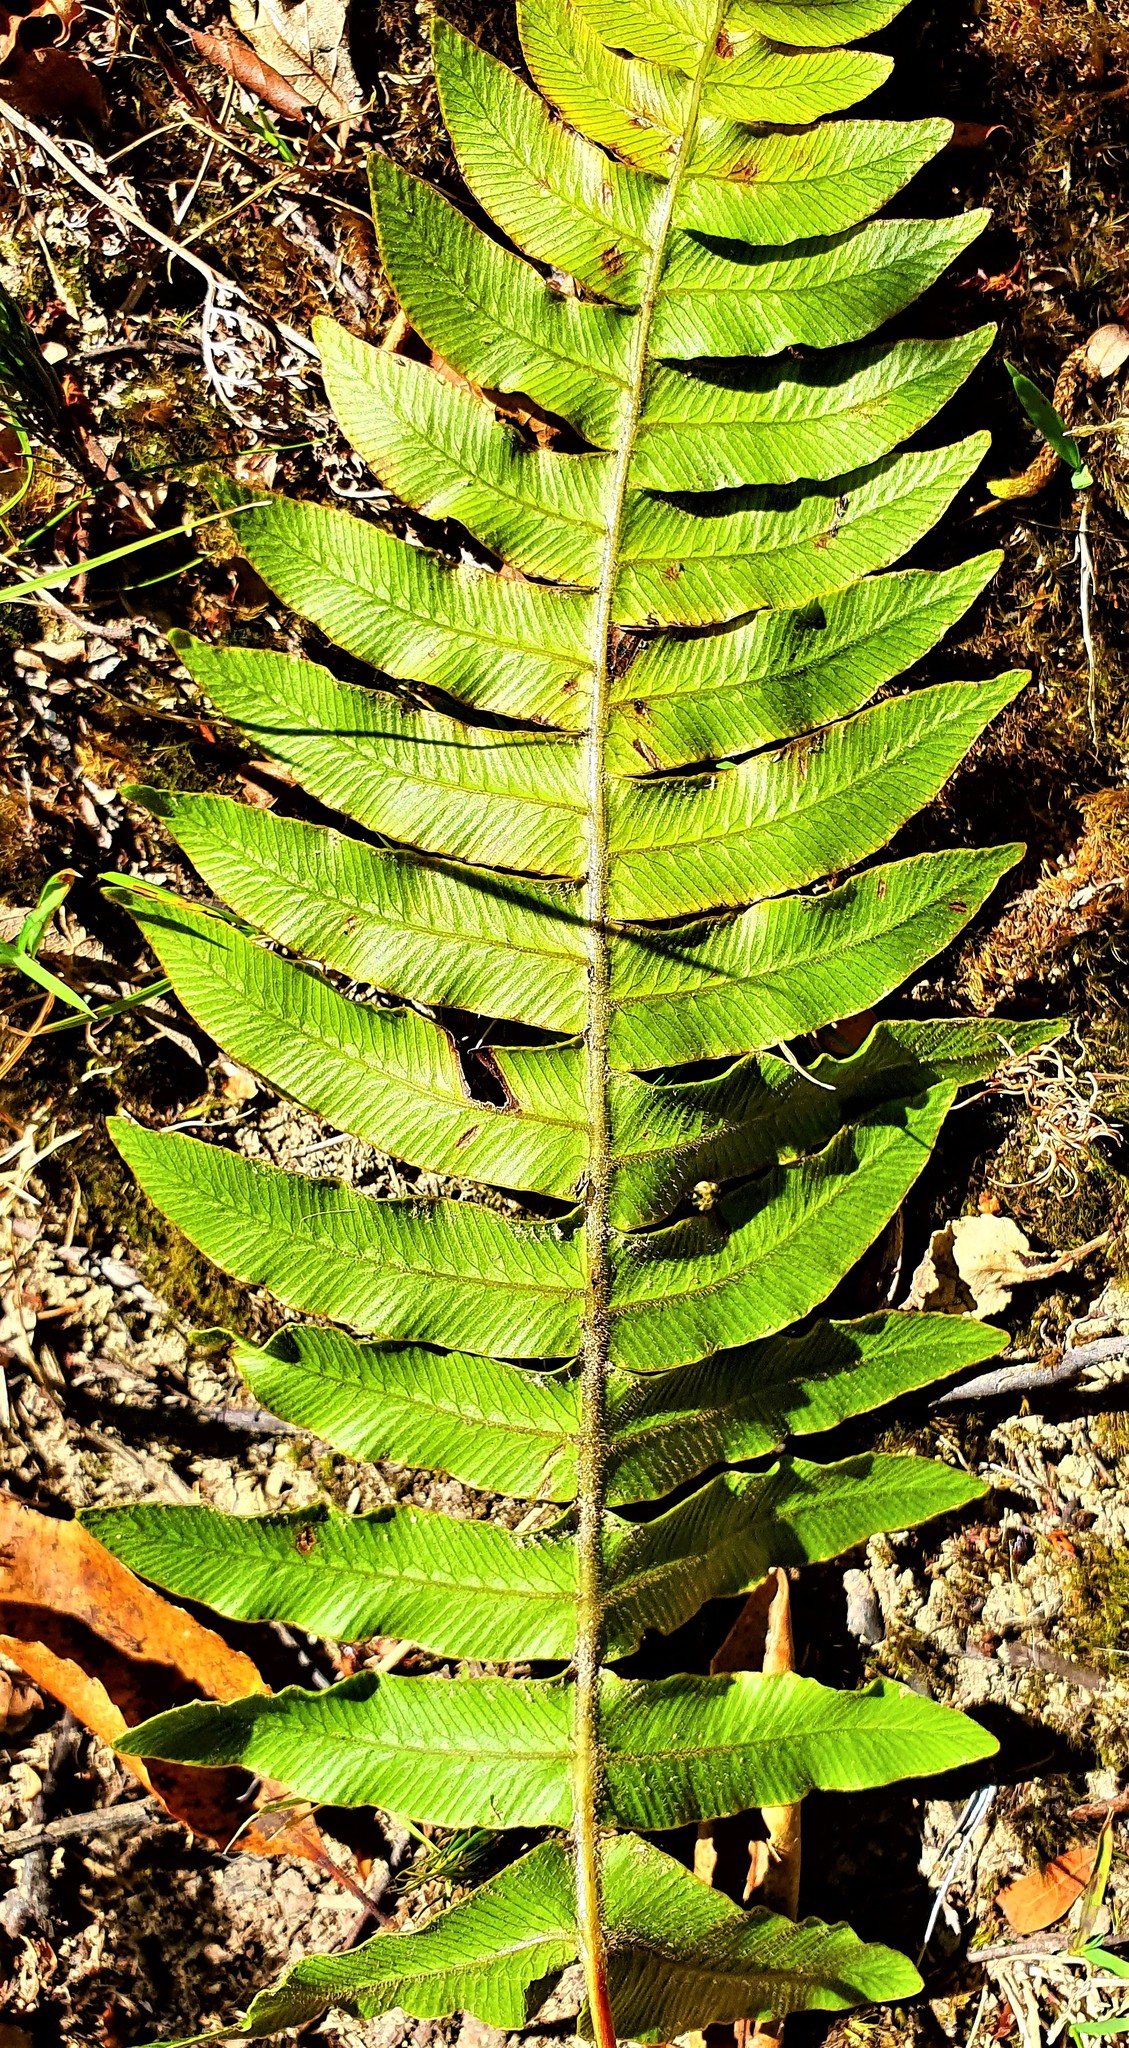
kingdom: Plantae
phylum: Tracheophyta
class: Polypodiopsida
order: Polypodiales
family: Blechnaceae
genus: Cranfillia
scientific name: Cranfillia deltoides
